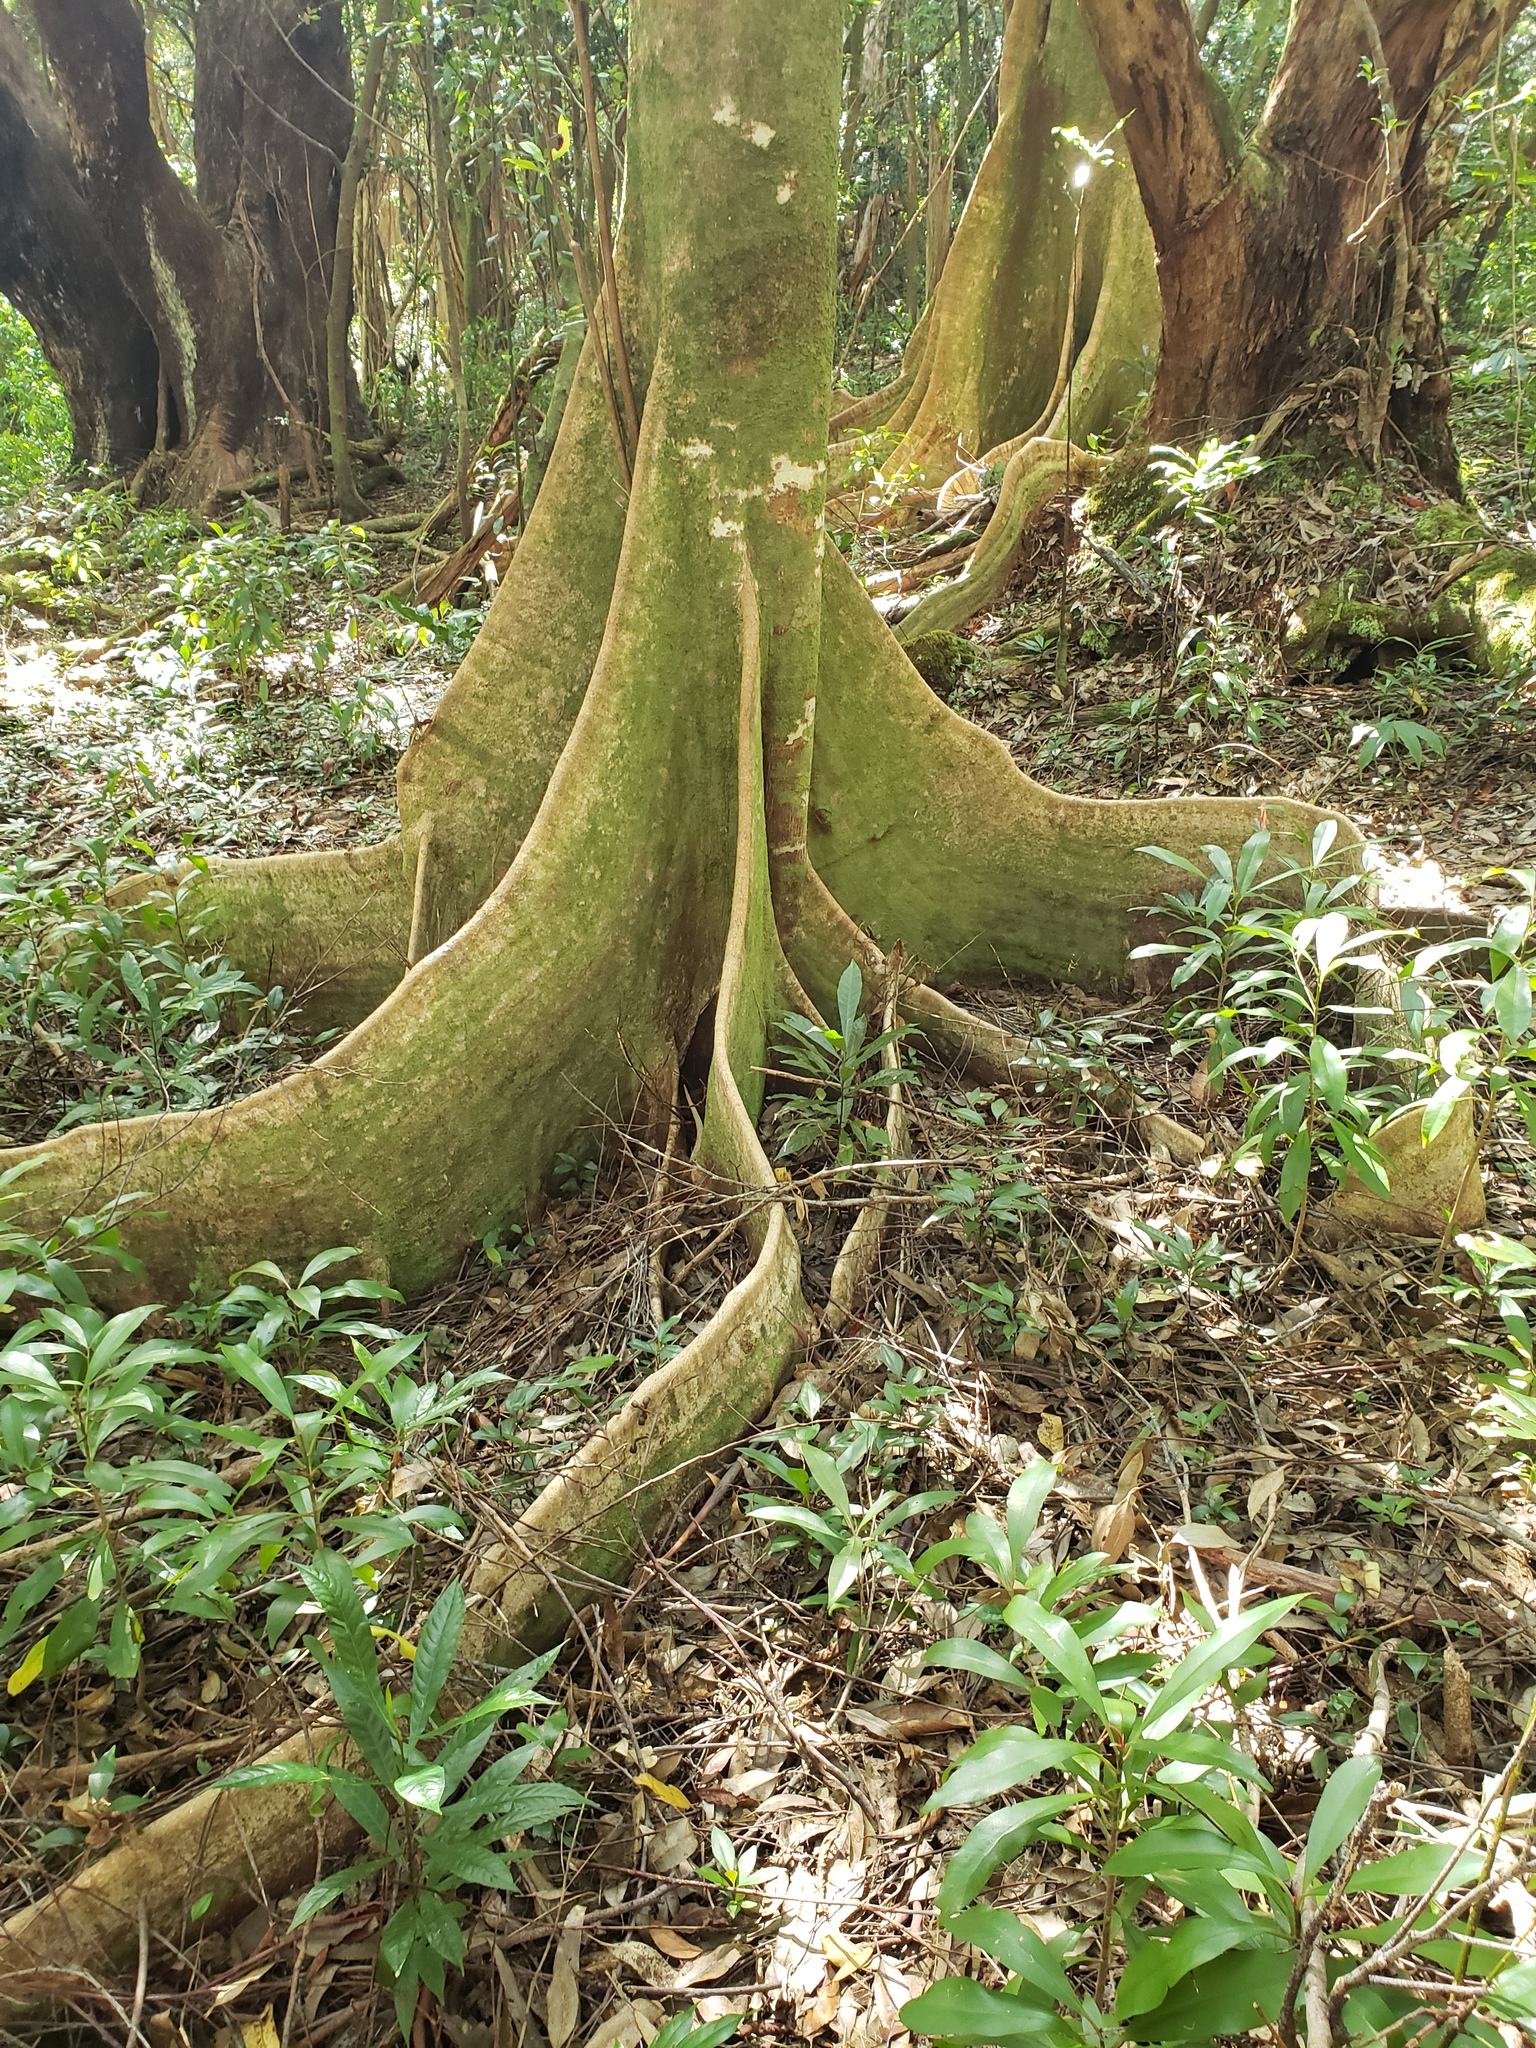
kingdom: Plantae
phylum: Tracheophyta
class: Magnoliopsida
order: Oxalidales
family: Elaeocarpaceae
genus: Elaeocarpus
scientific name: Elaeocarpus angustifolius
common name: Blue marble tree
